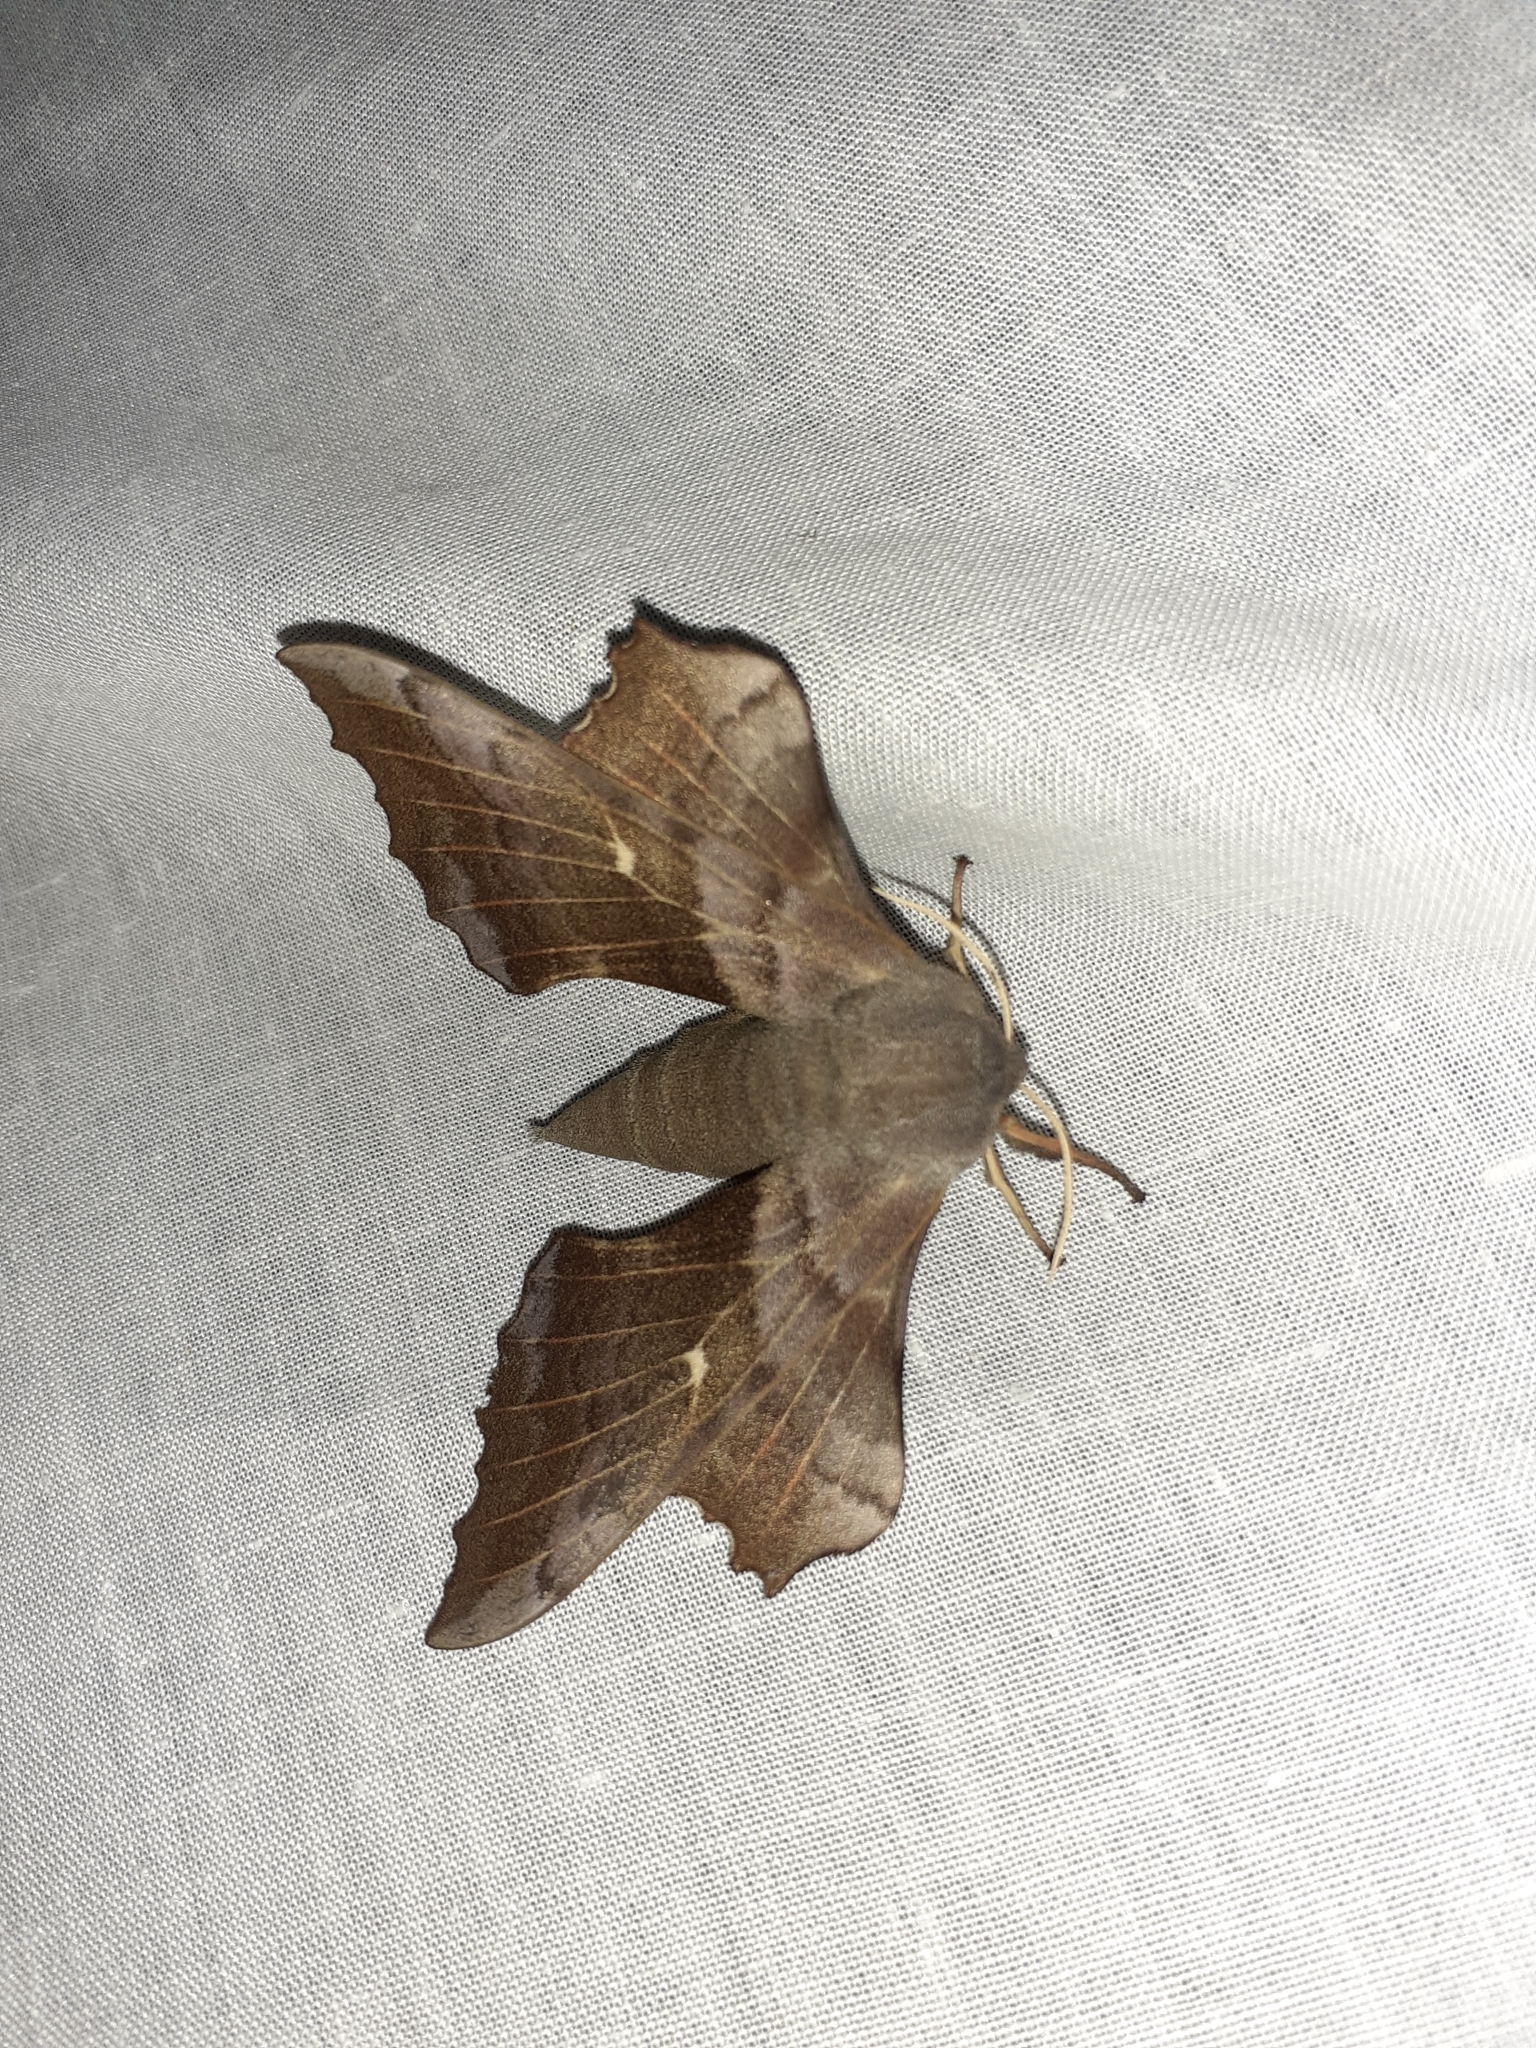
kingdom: Animalia
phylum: Arthropoda
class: Insecta
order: Lepidoptera
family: Sphingidae
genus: Laothoe
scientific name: Laothoe populi
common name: Poplar hawk-moth
